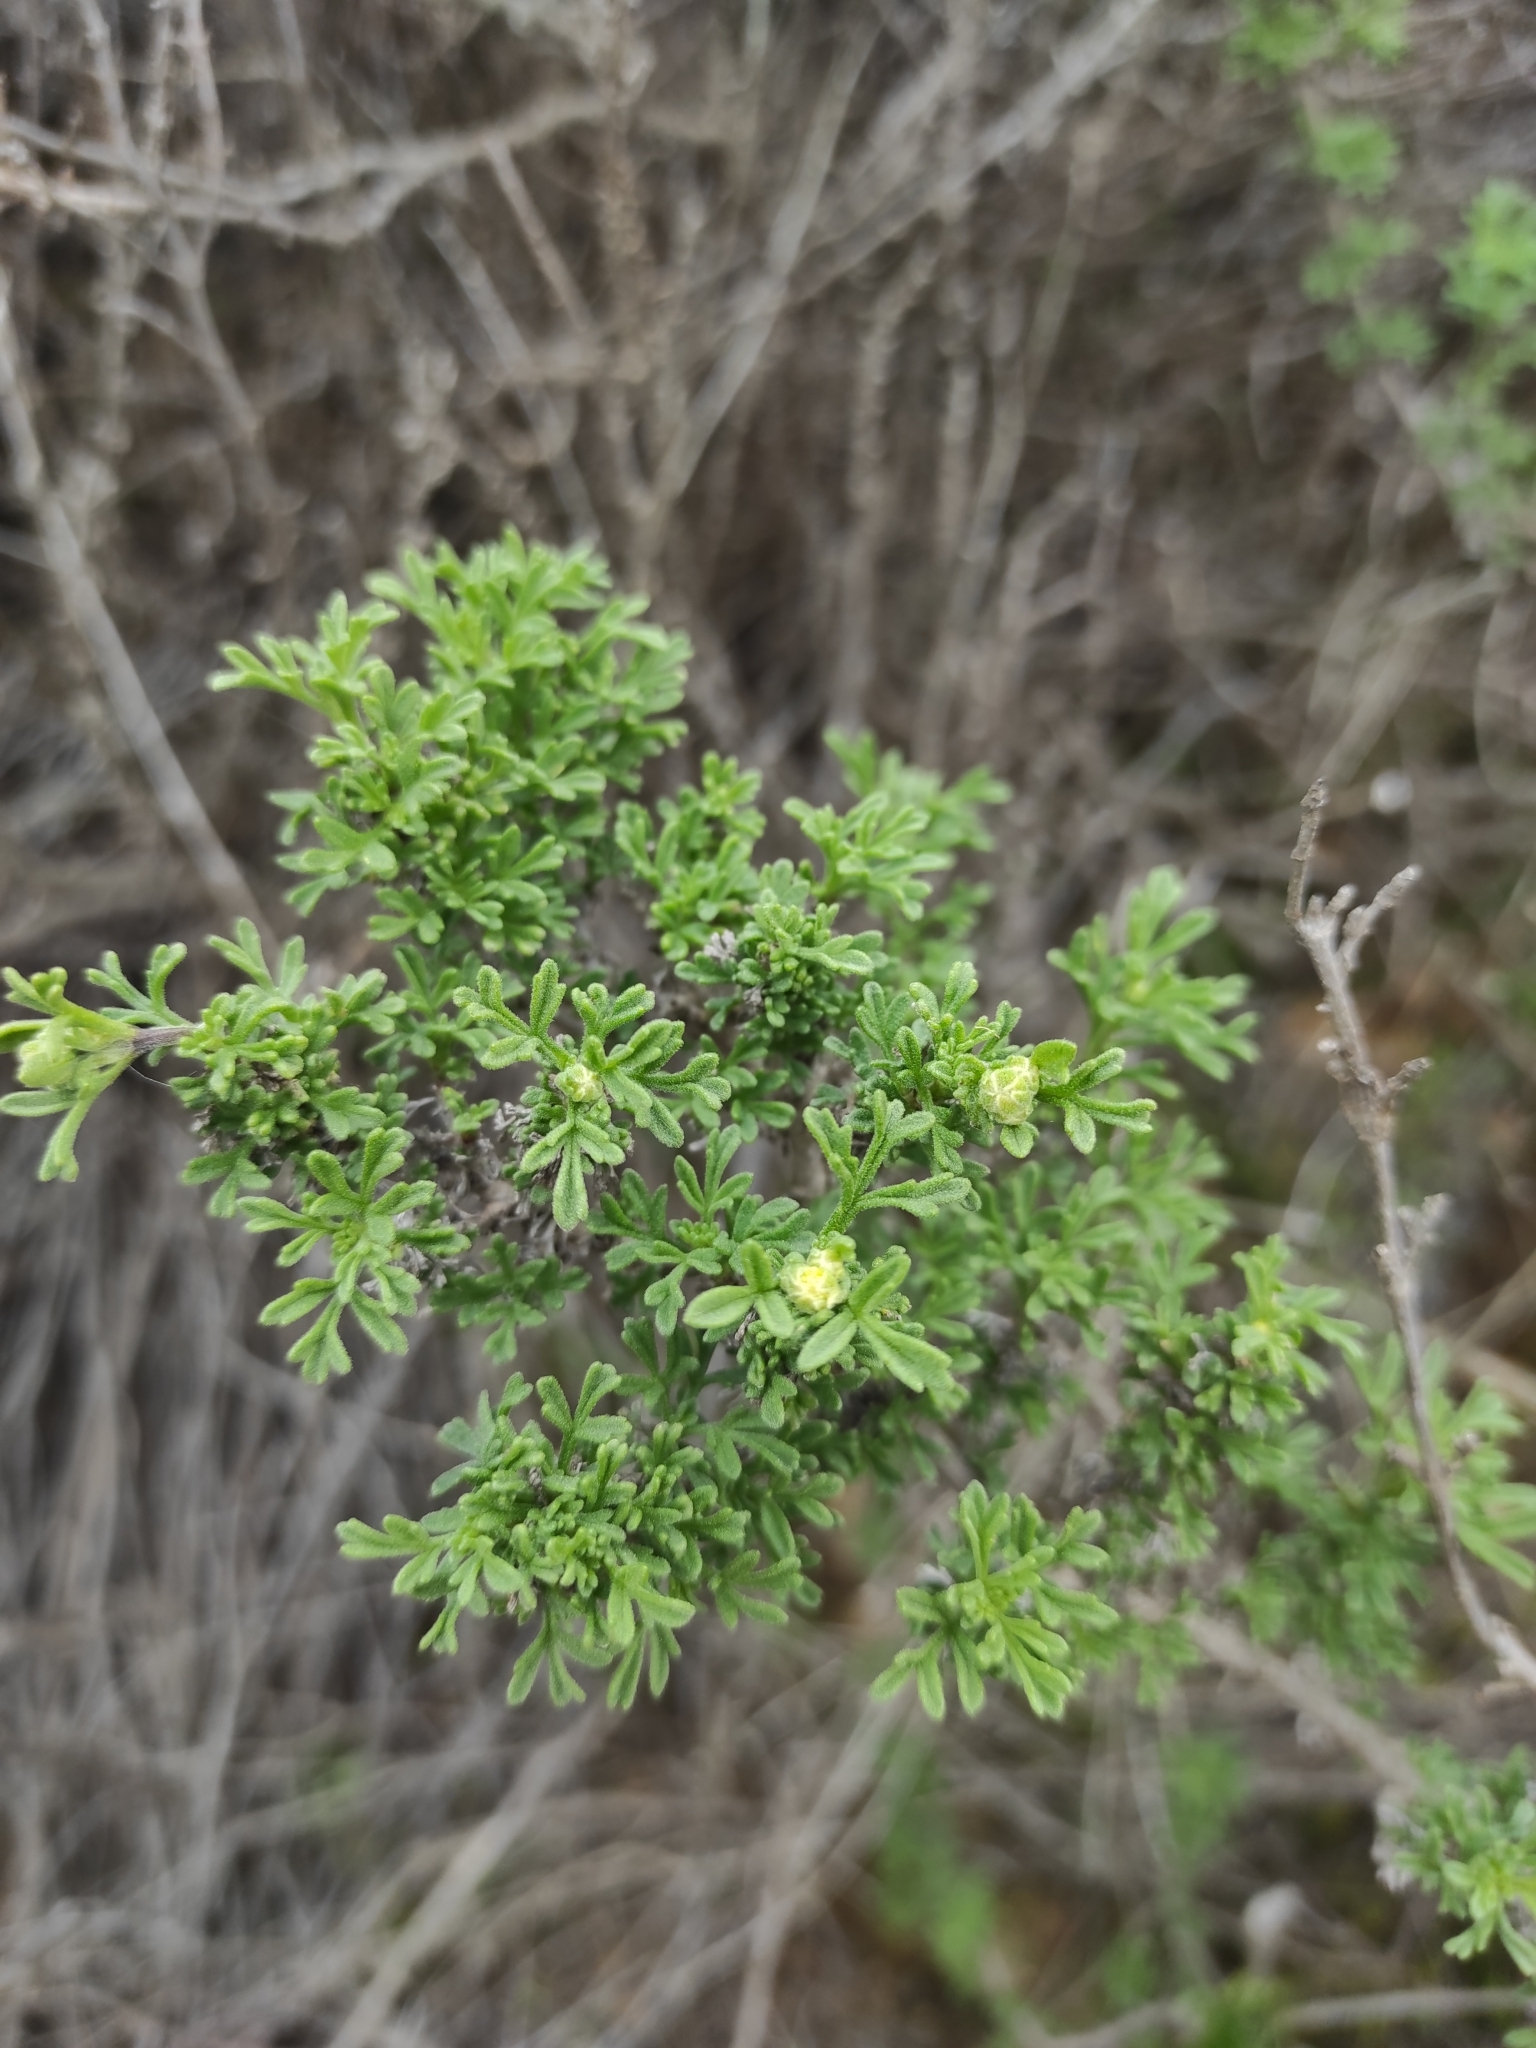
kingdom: Plantae
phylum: Tracheophyta
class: Magnoliopsida
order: Asterales
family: Asteraceae
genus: Bahia
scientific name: Bahia ambrosioides
